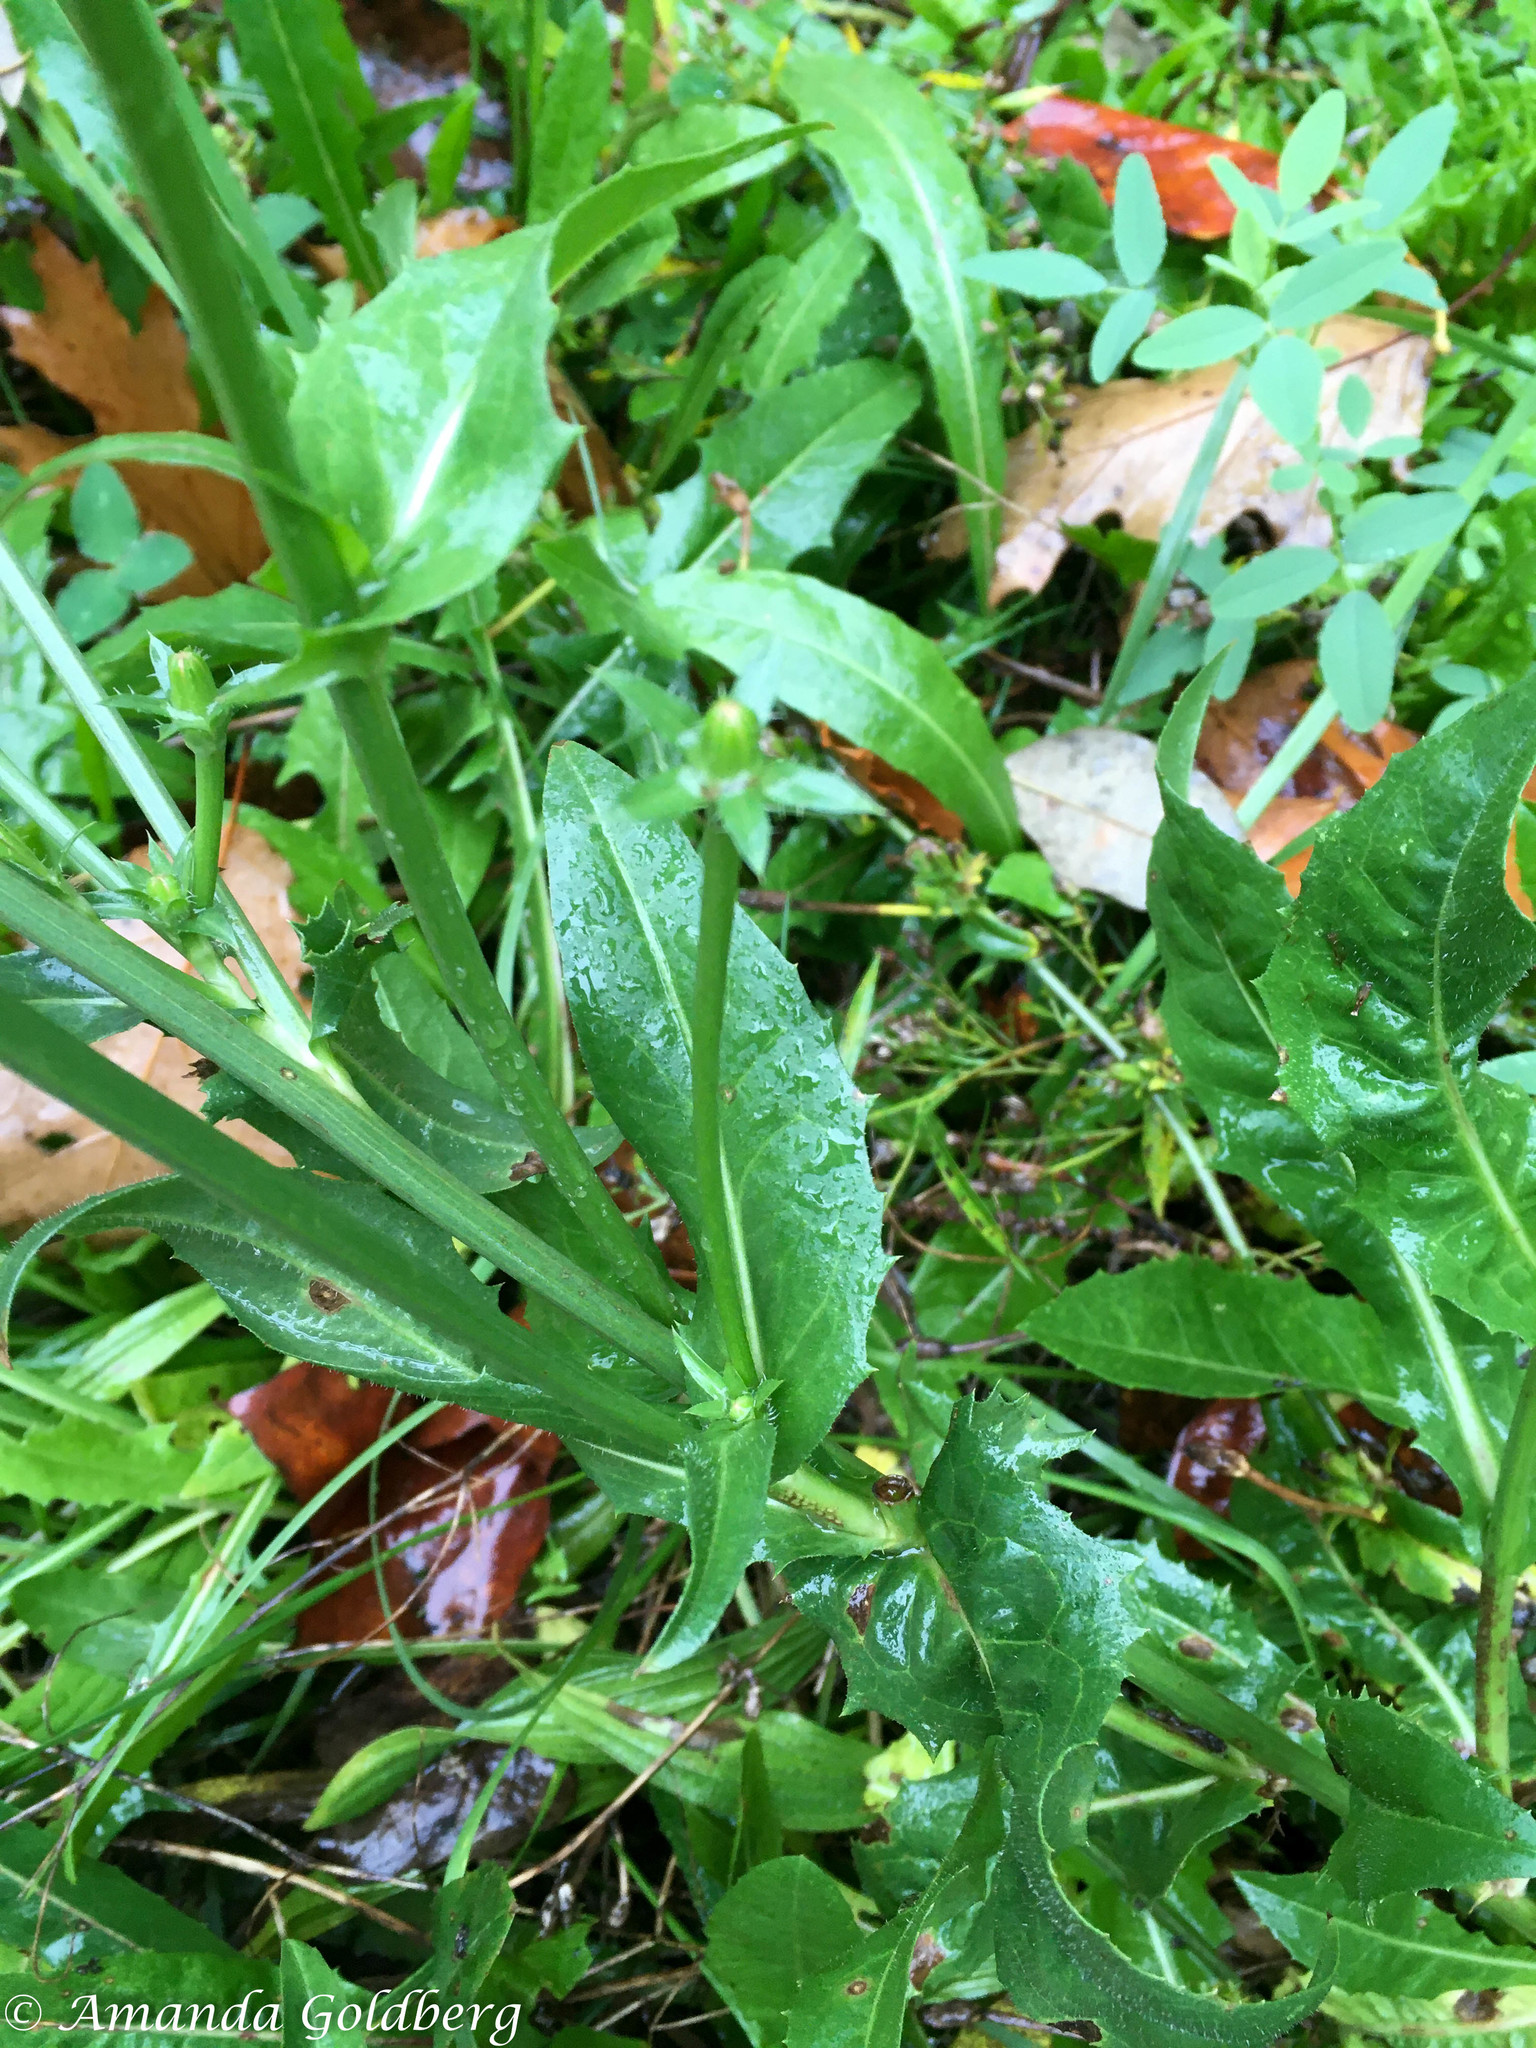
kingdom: Plantae
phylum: Tracheophyta
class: Magnoliopsida
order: Asterales
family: Asteraceae
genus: Cichorium
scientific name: Cichorium intybus
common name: Chicory
